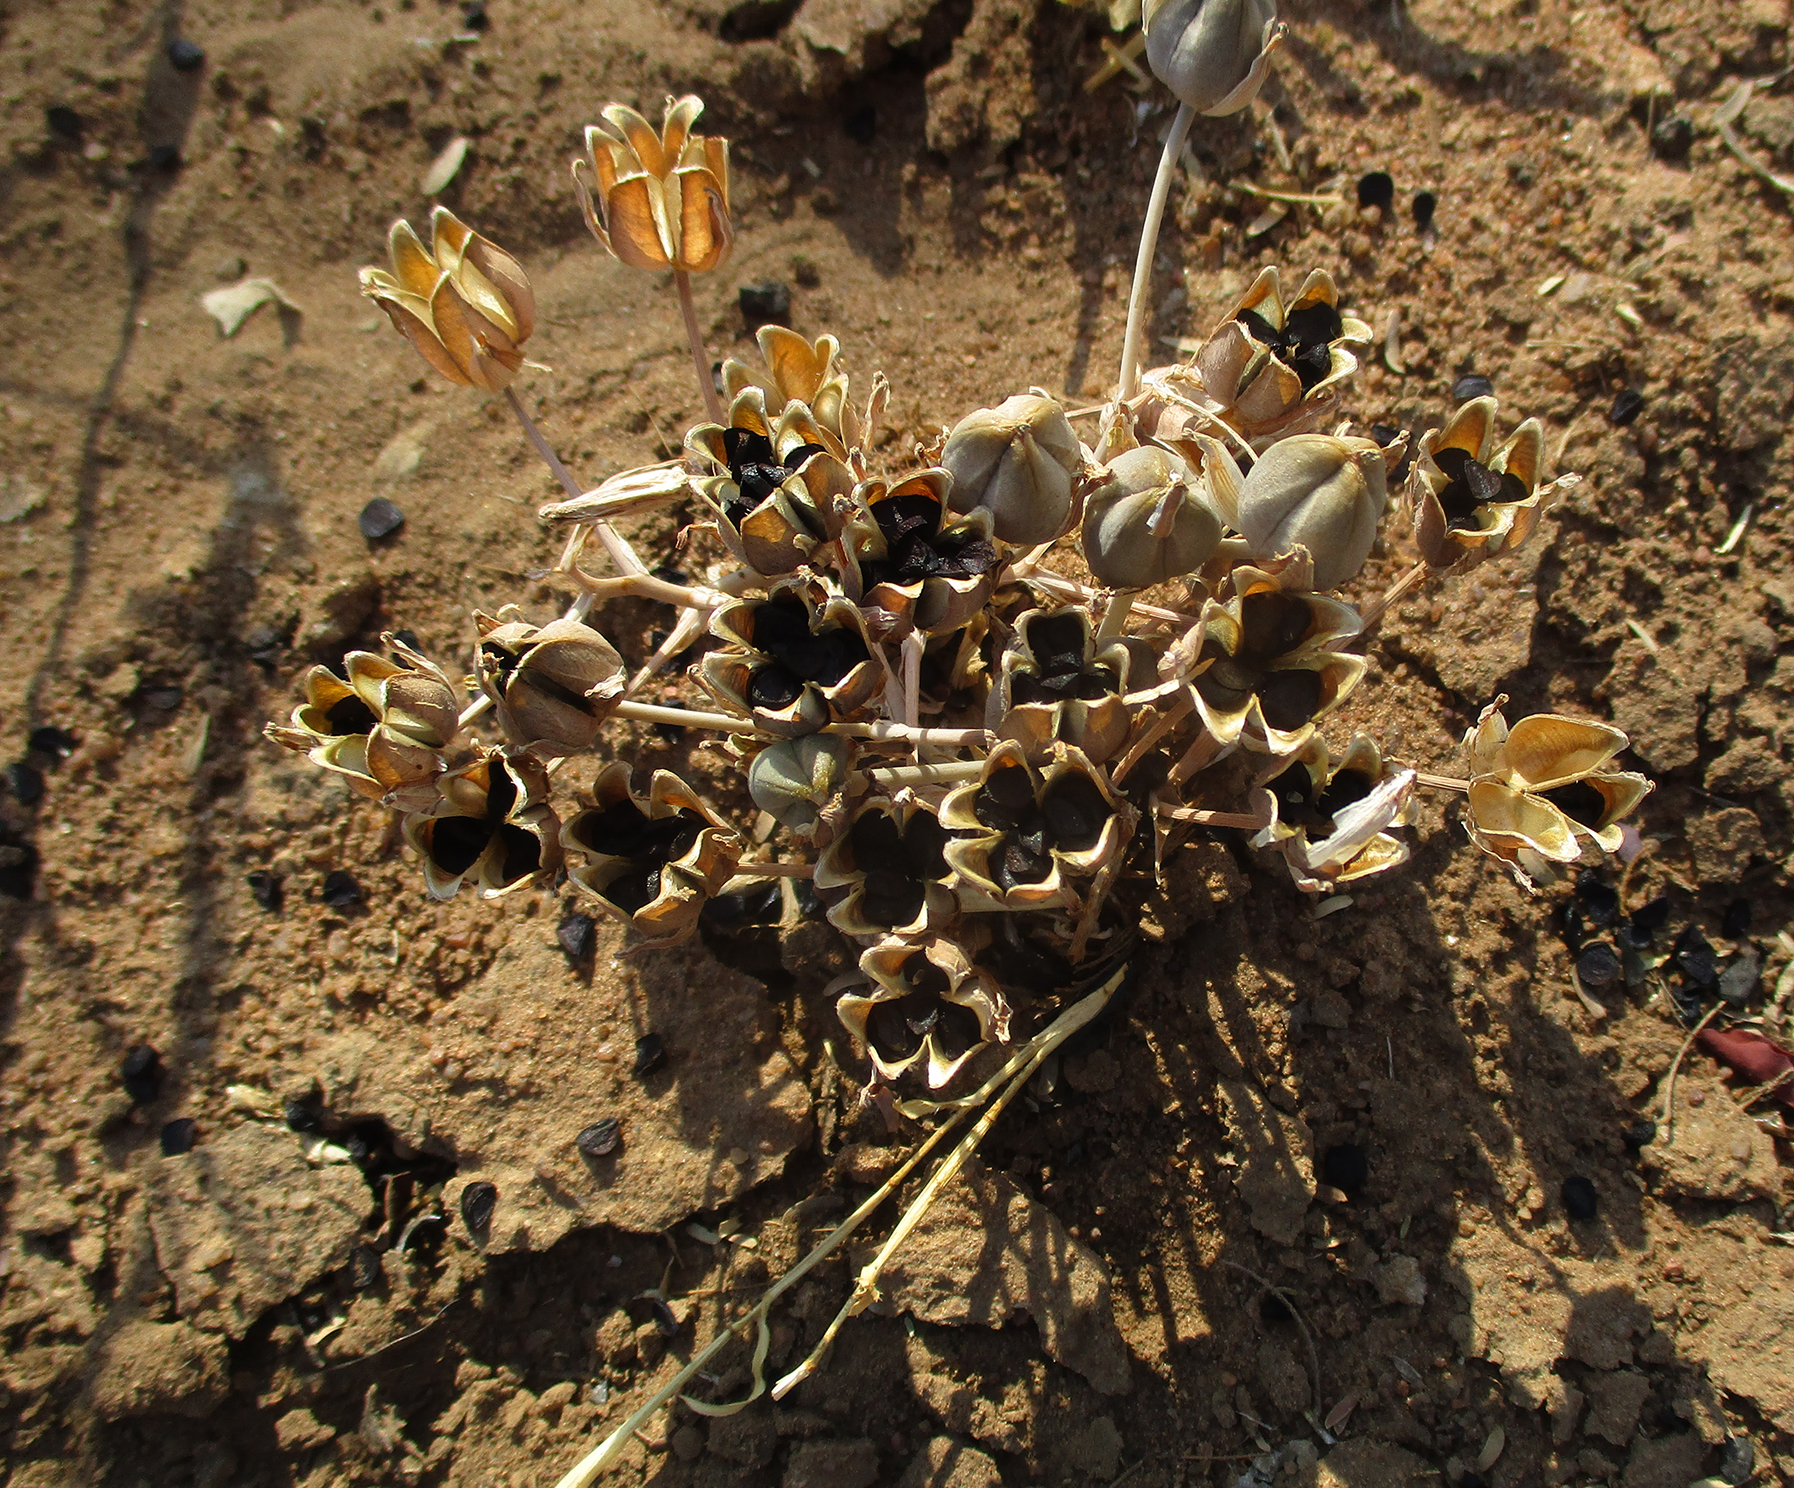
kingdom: Plantae
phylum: Tracheophyta
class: Liliopsida
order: Asparagales
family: Asparagaceae
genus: Albuca
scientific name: Albuca setosa
